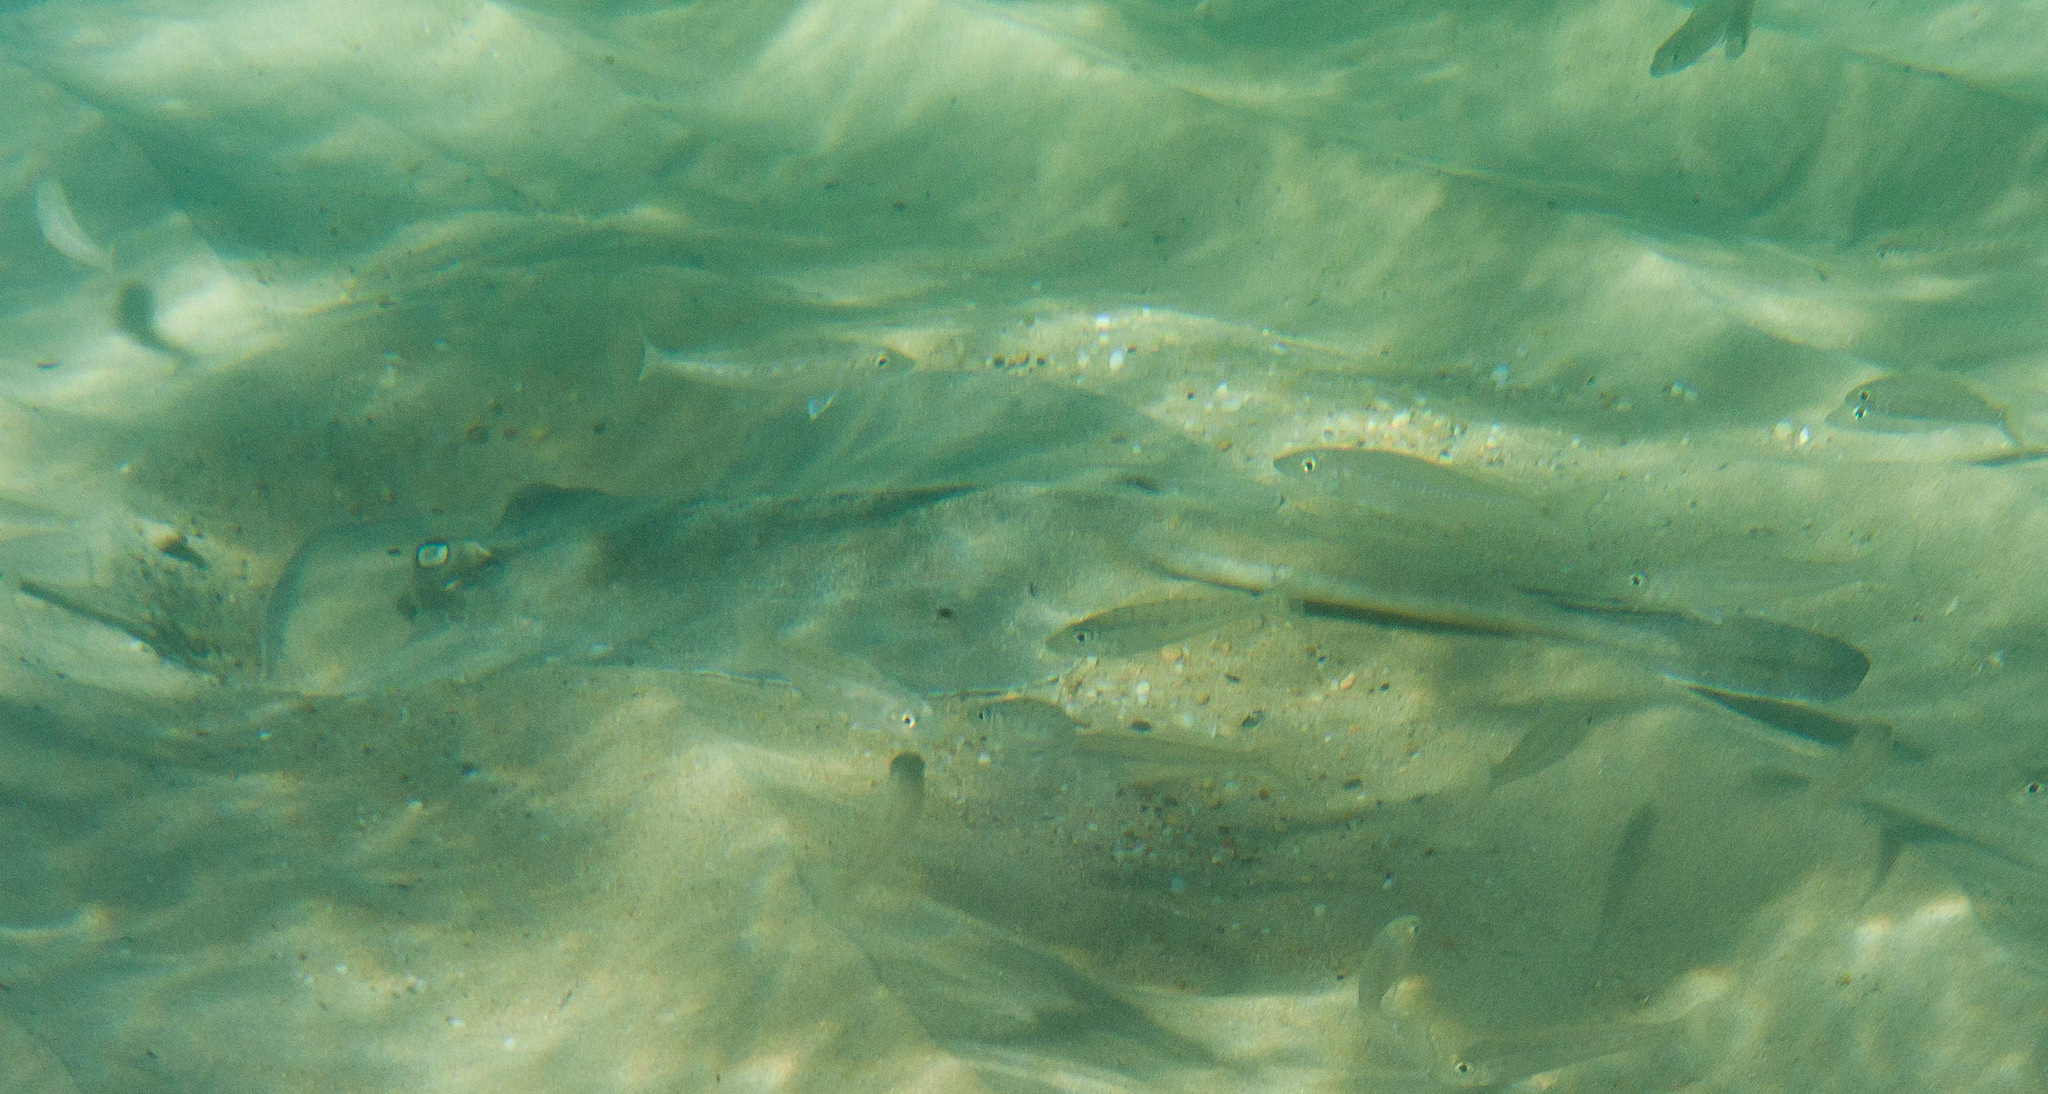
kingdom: Animalia
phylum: Chordata
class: Elasmobranchii
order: Myliobatiformes
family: Urolophidae
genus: Trygonoptera
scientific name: Trygonoptera mucosa
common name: Western shovelnose stingaree
